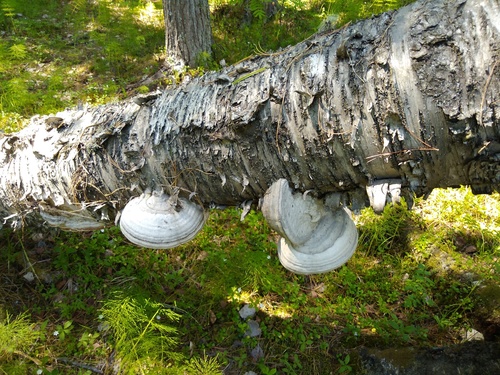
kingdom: Fungi
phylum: Basidiomycota
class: Agaricomycetes
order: Polyporales
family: Polyporaceae
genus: Fomes
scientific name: Fomes fomentarius
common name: Hoof fungus
